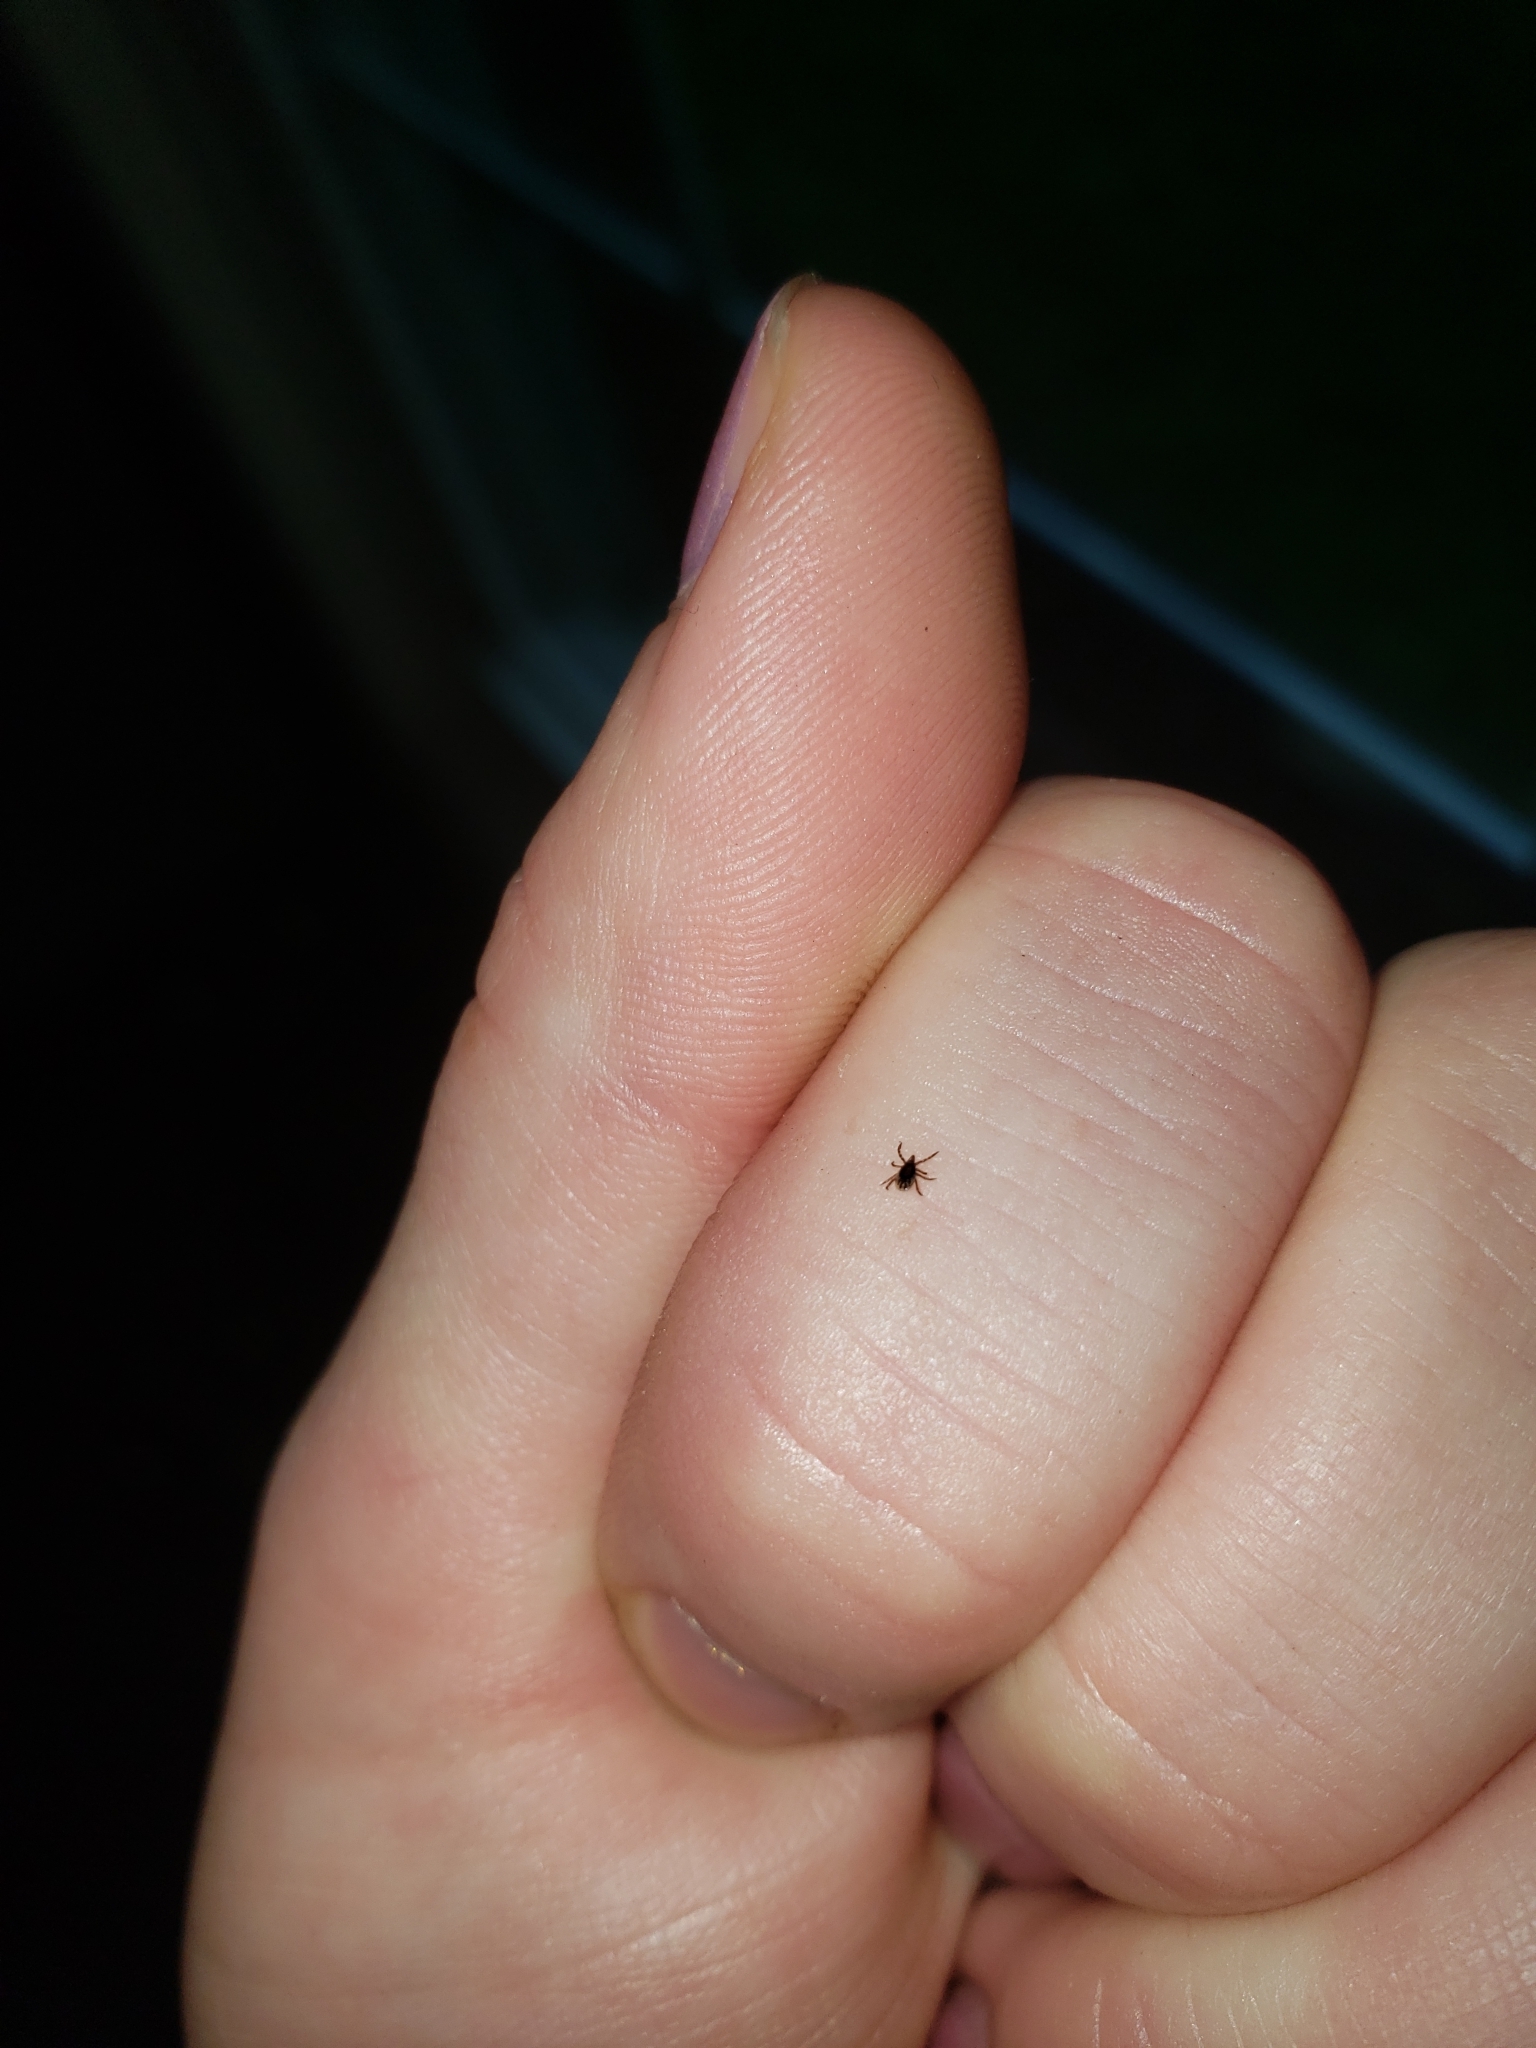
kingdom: Animalia
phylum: Arthropoda
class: Arachnida
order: Ixodida
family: Ixodidae
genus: Ixodes
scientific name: Ixodes scapularis
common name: Black legged tick
